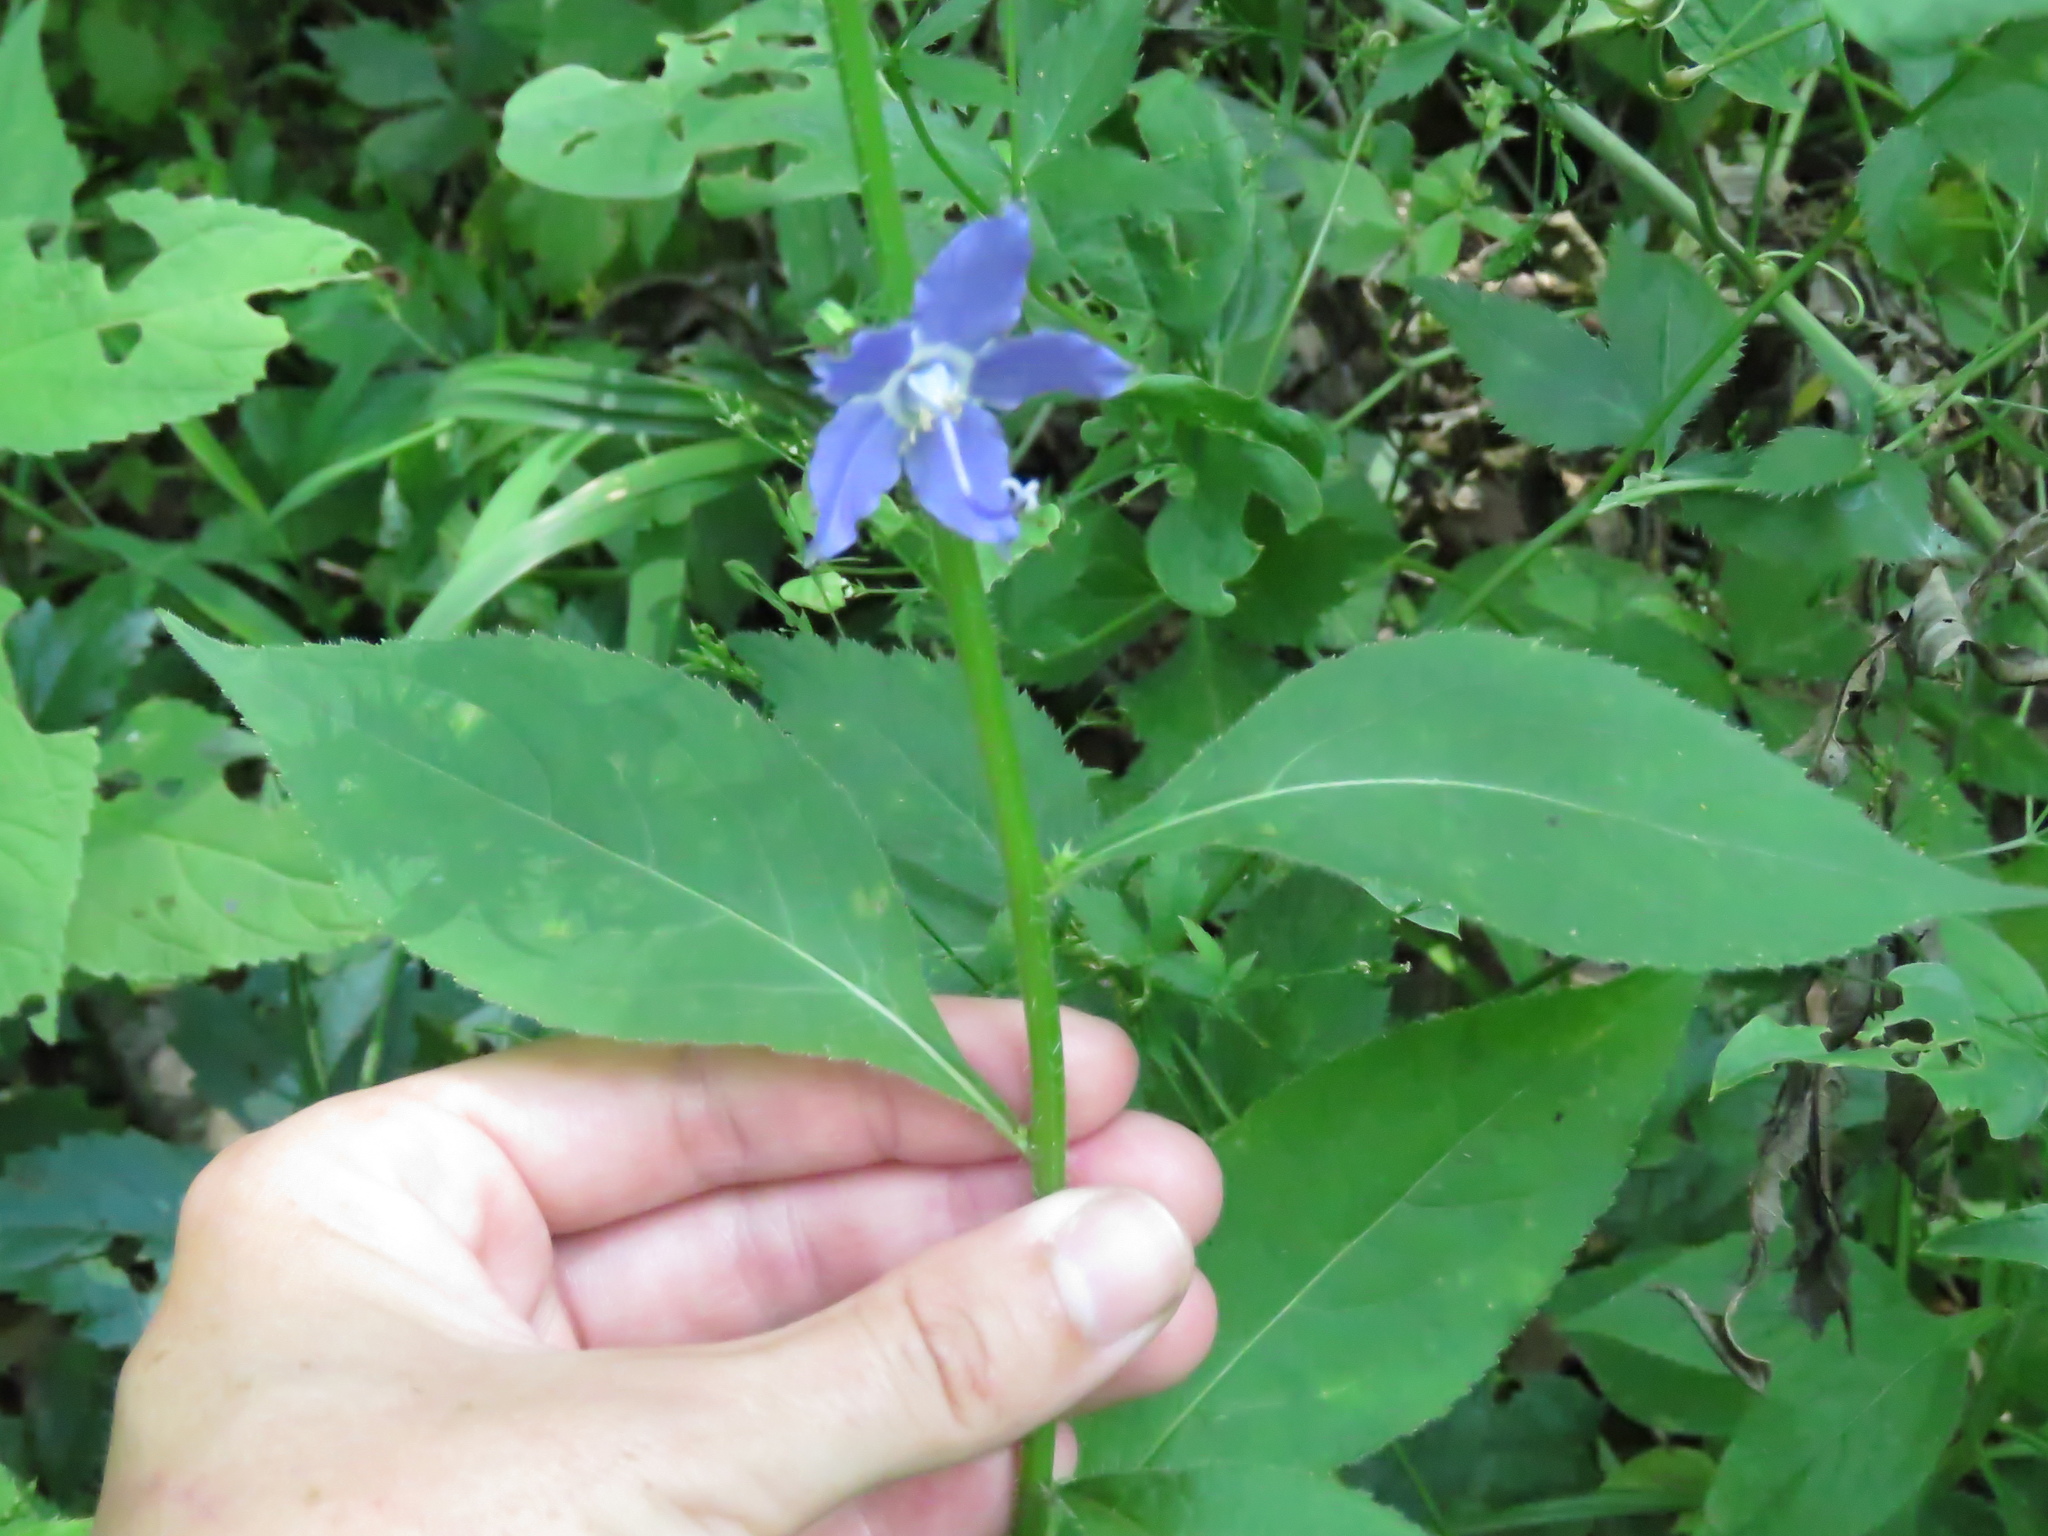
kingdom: Plantae
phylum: Tracheophyta
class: Magnoliopsida
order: Asterales
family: Campanulaceae
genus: Campanulastrum
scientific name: Campanulastrum americanum
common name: American bellflower
